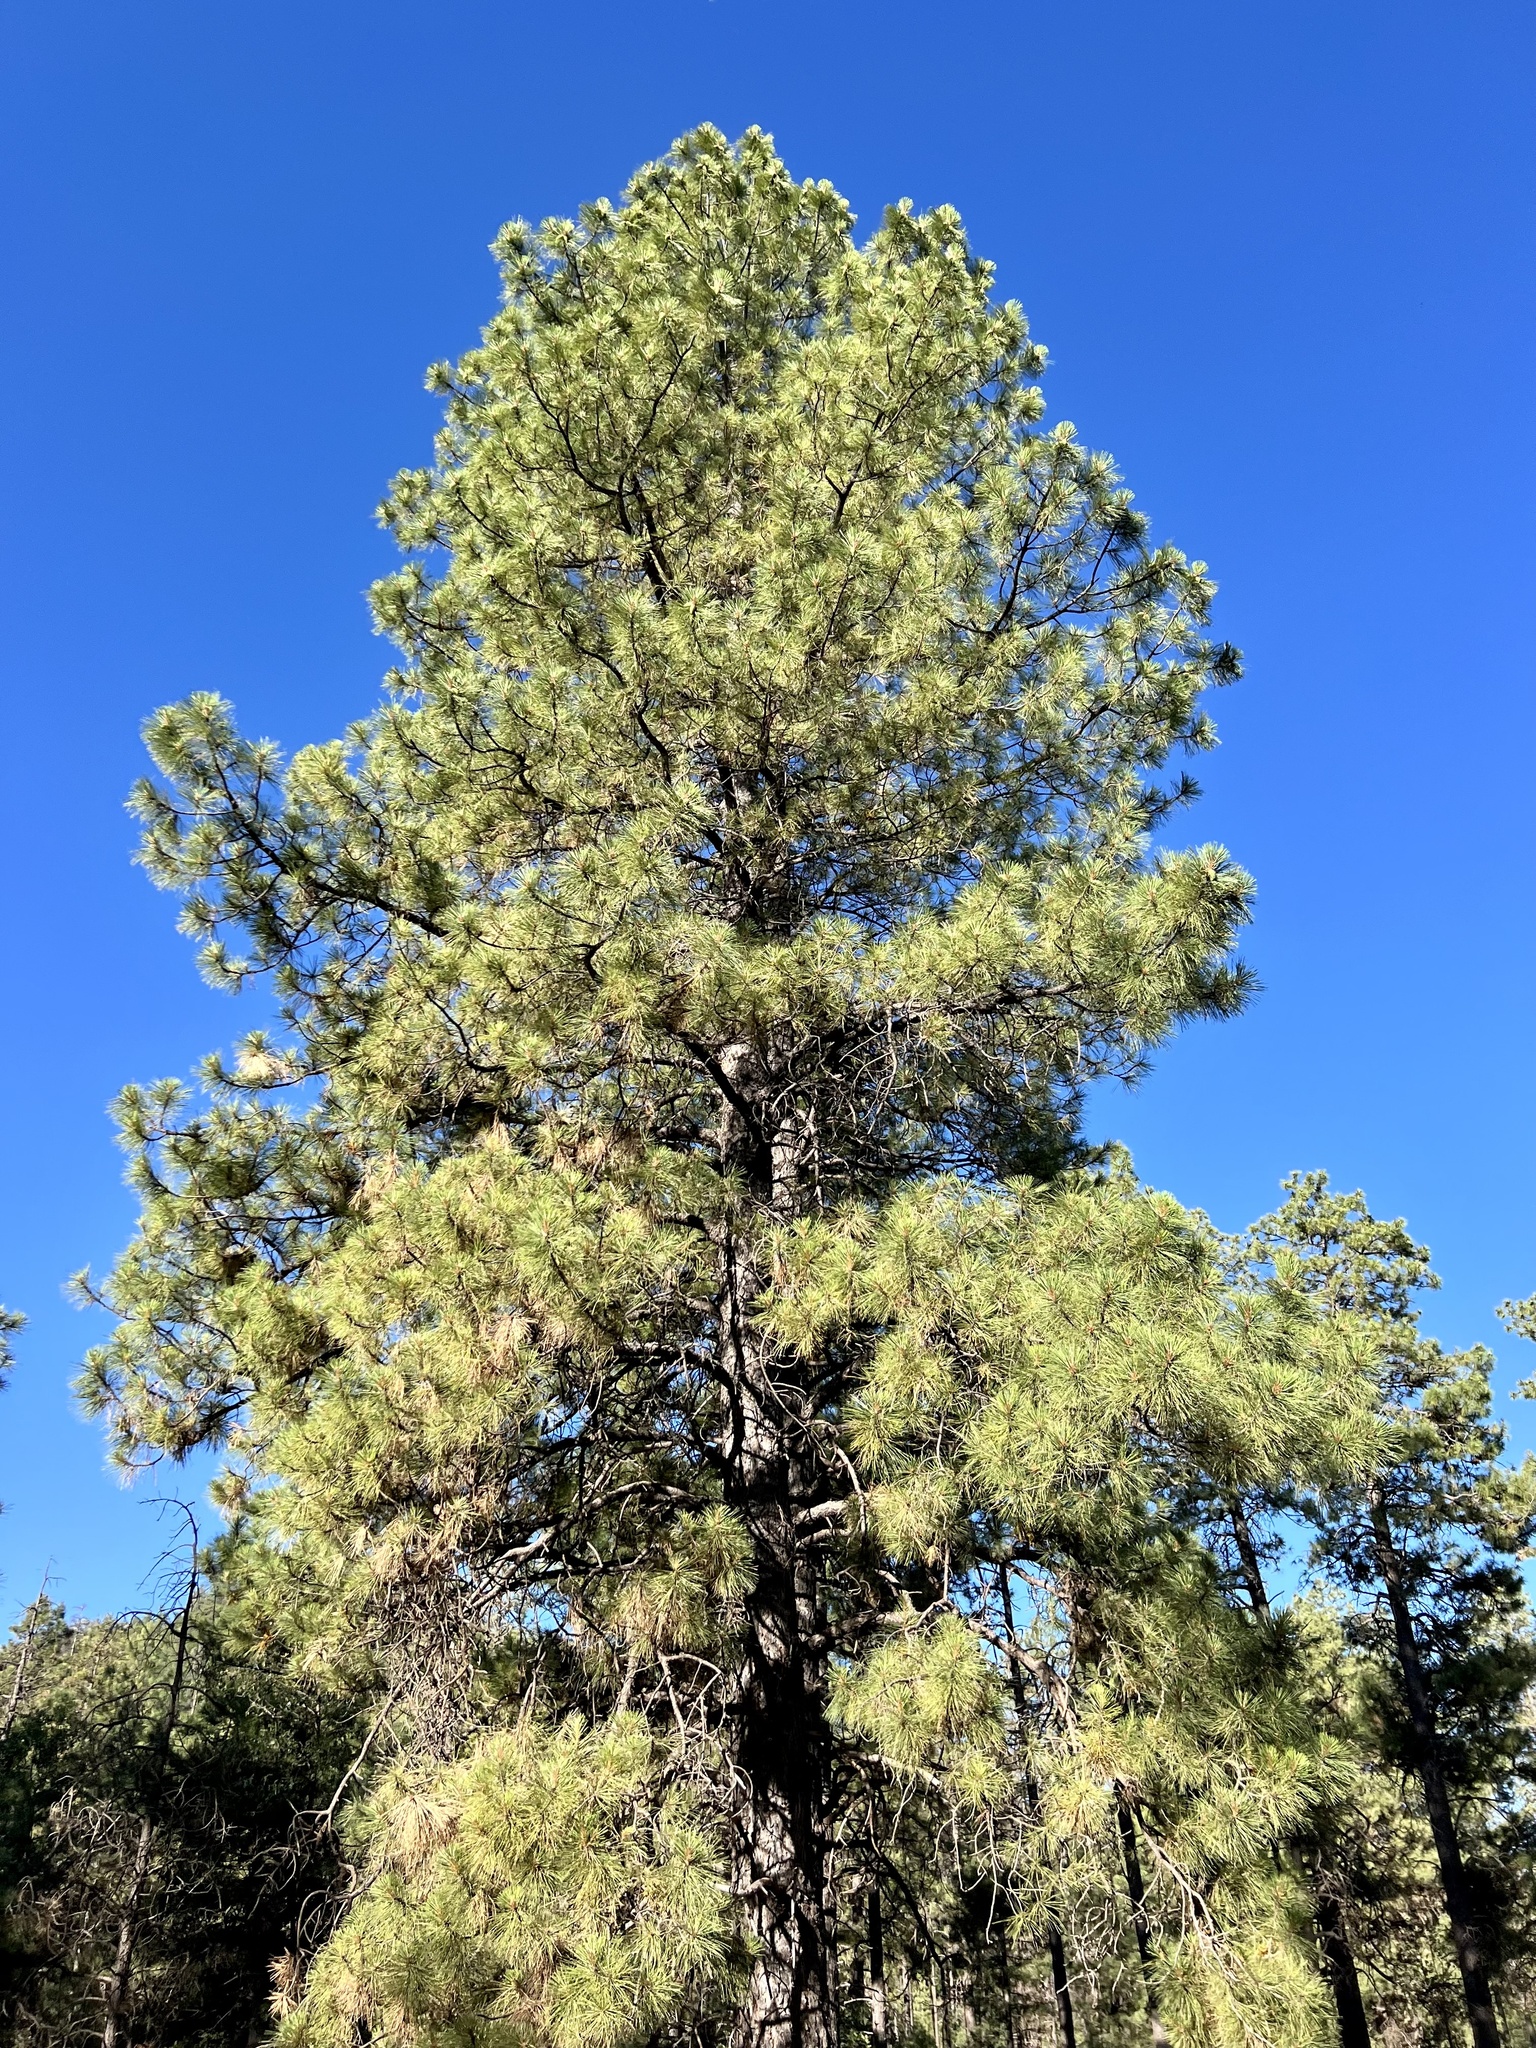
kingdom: Plantae
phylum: Tracheophyta
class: Pinopsida
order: Pinales
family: Pinaceae
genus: Pinus
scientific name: Pinus ponderosa
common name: Western yellow-pine
